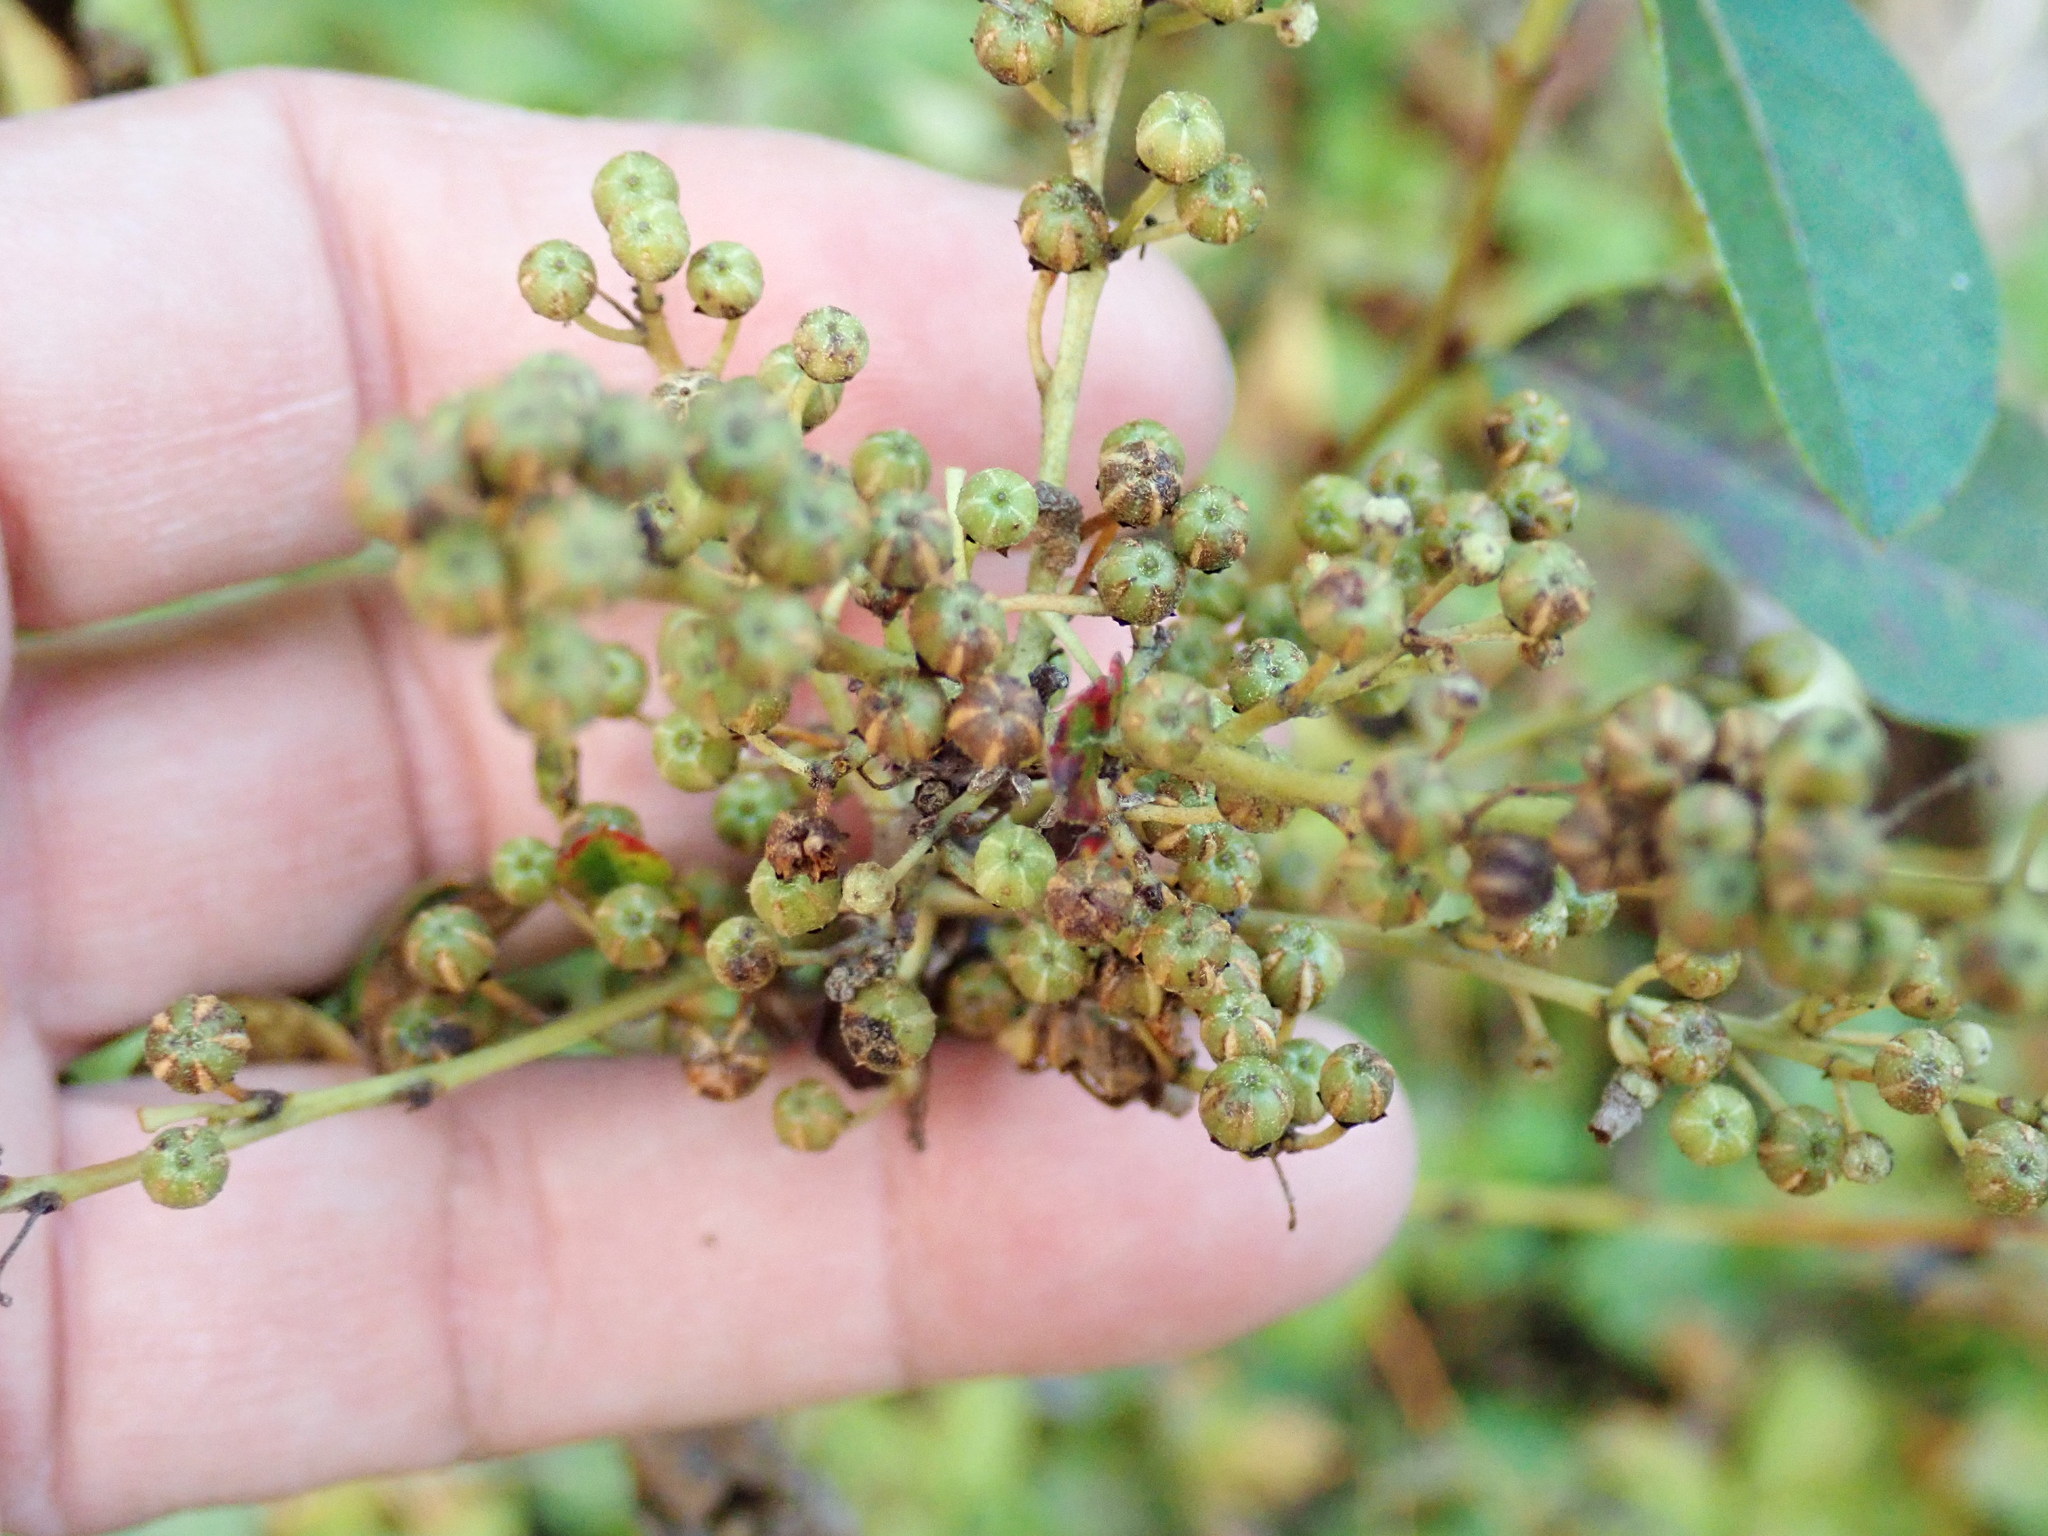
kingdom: Plantae
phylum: Tracheophyta
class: Magnoliopsida
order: Ericales
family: Ericaceae
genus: Lyonia
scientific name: Lyonia ligustrina
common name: Maleberry
